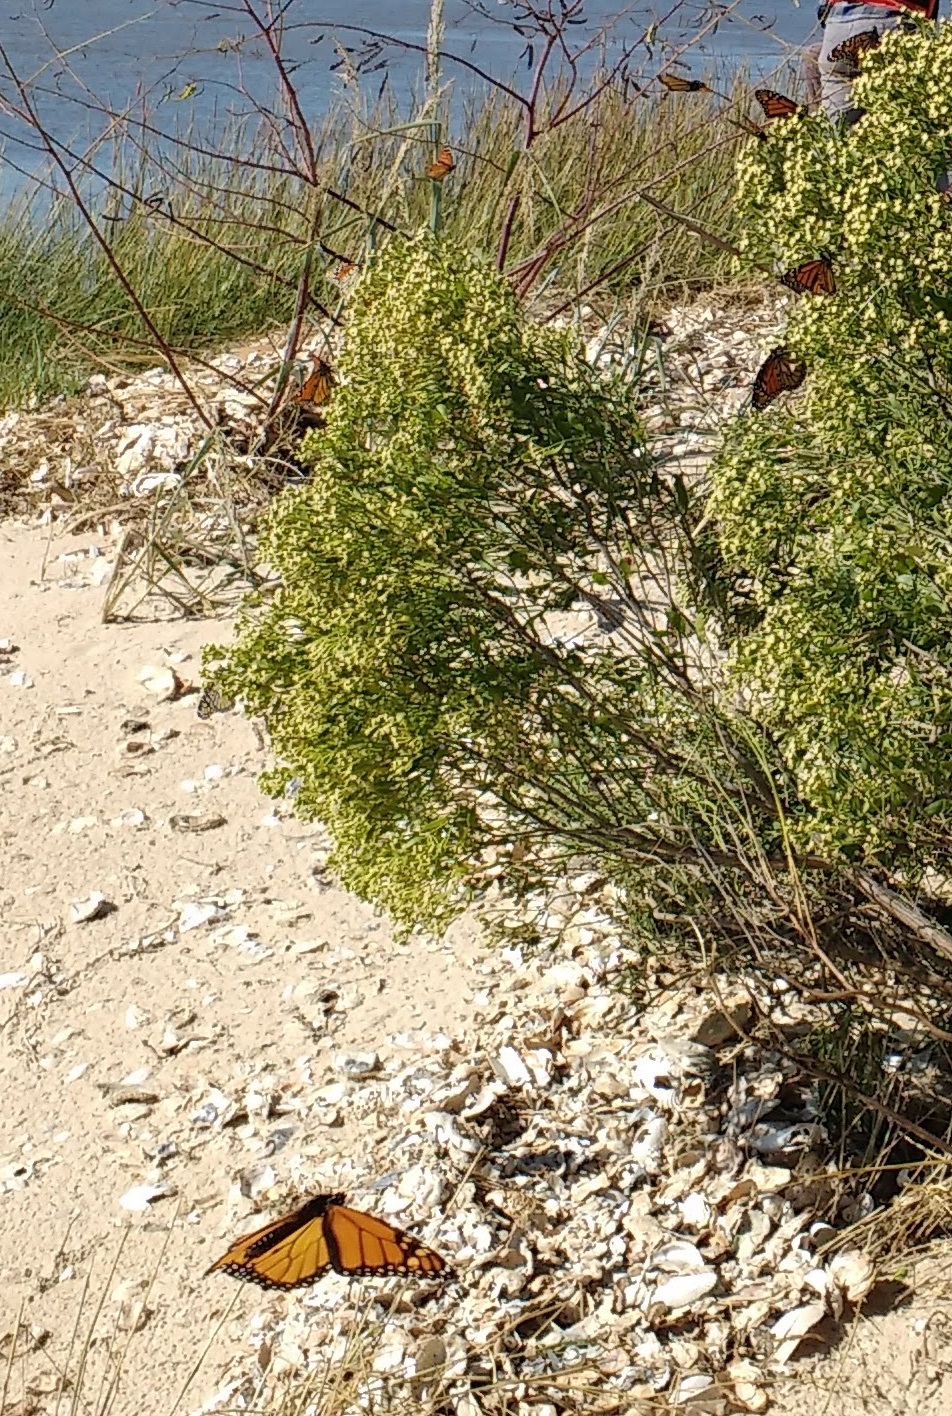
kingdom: Animalia
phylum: Arthropoda
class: Insecta
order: Lepidoptera
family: Nymphalidae
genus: Danaus
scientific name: Danaus plexippus
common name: Monarch
